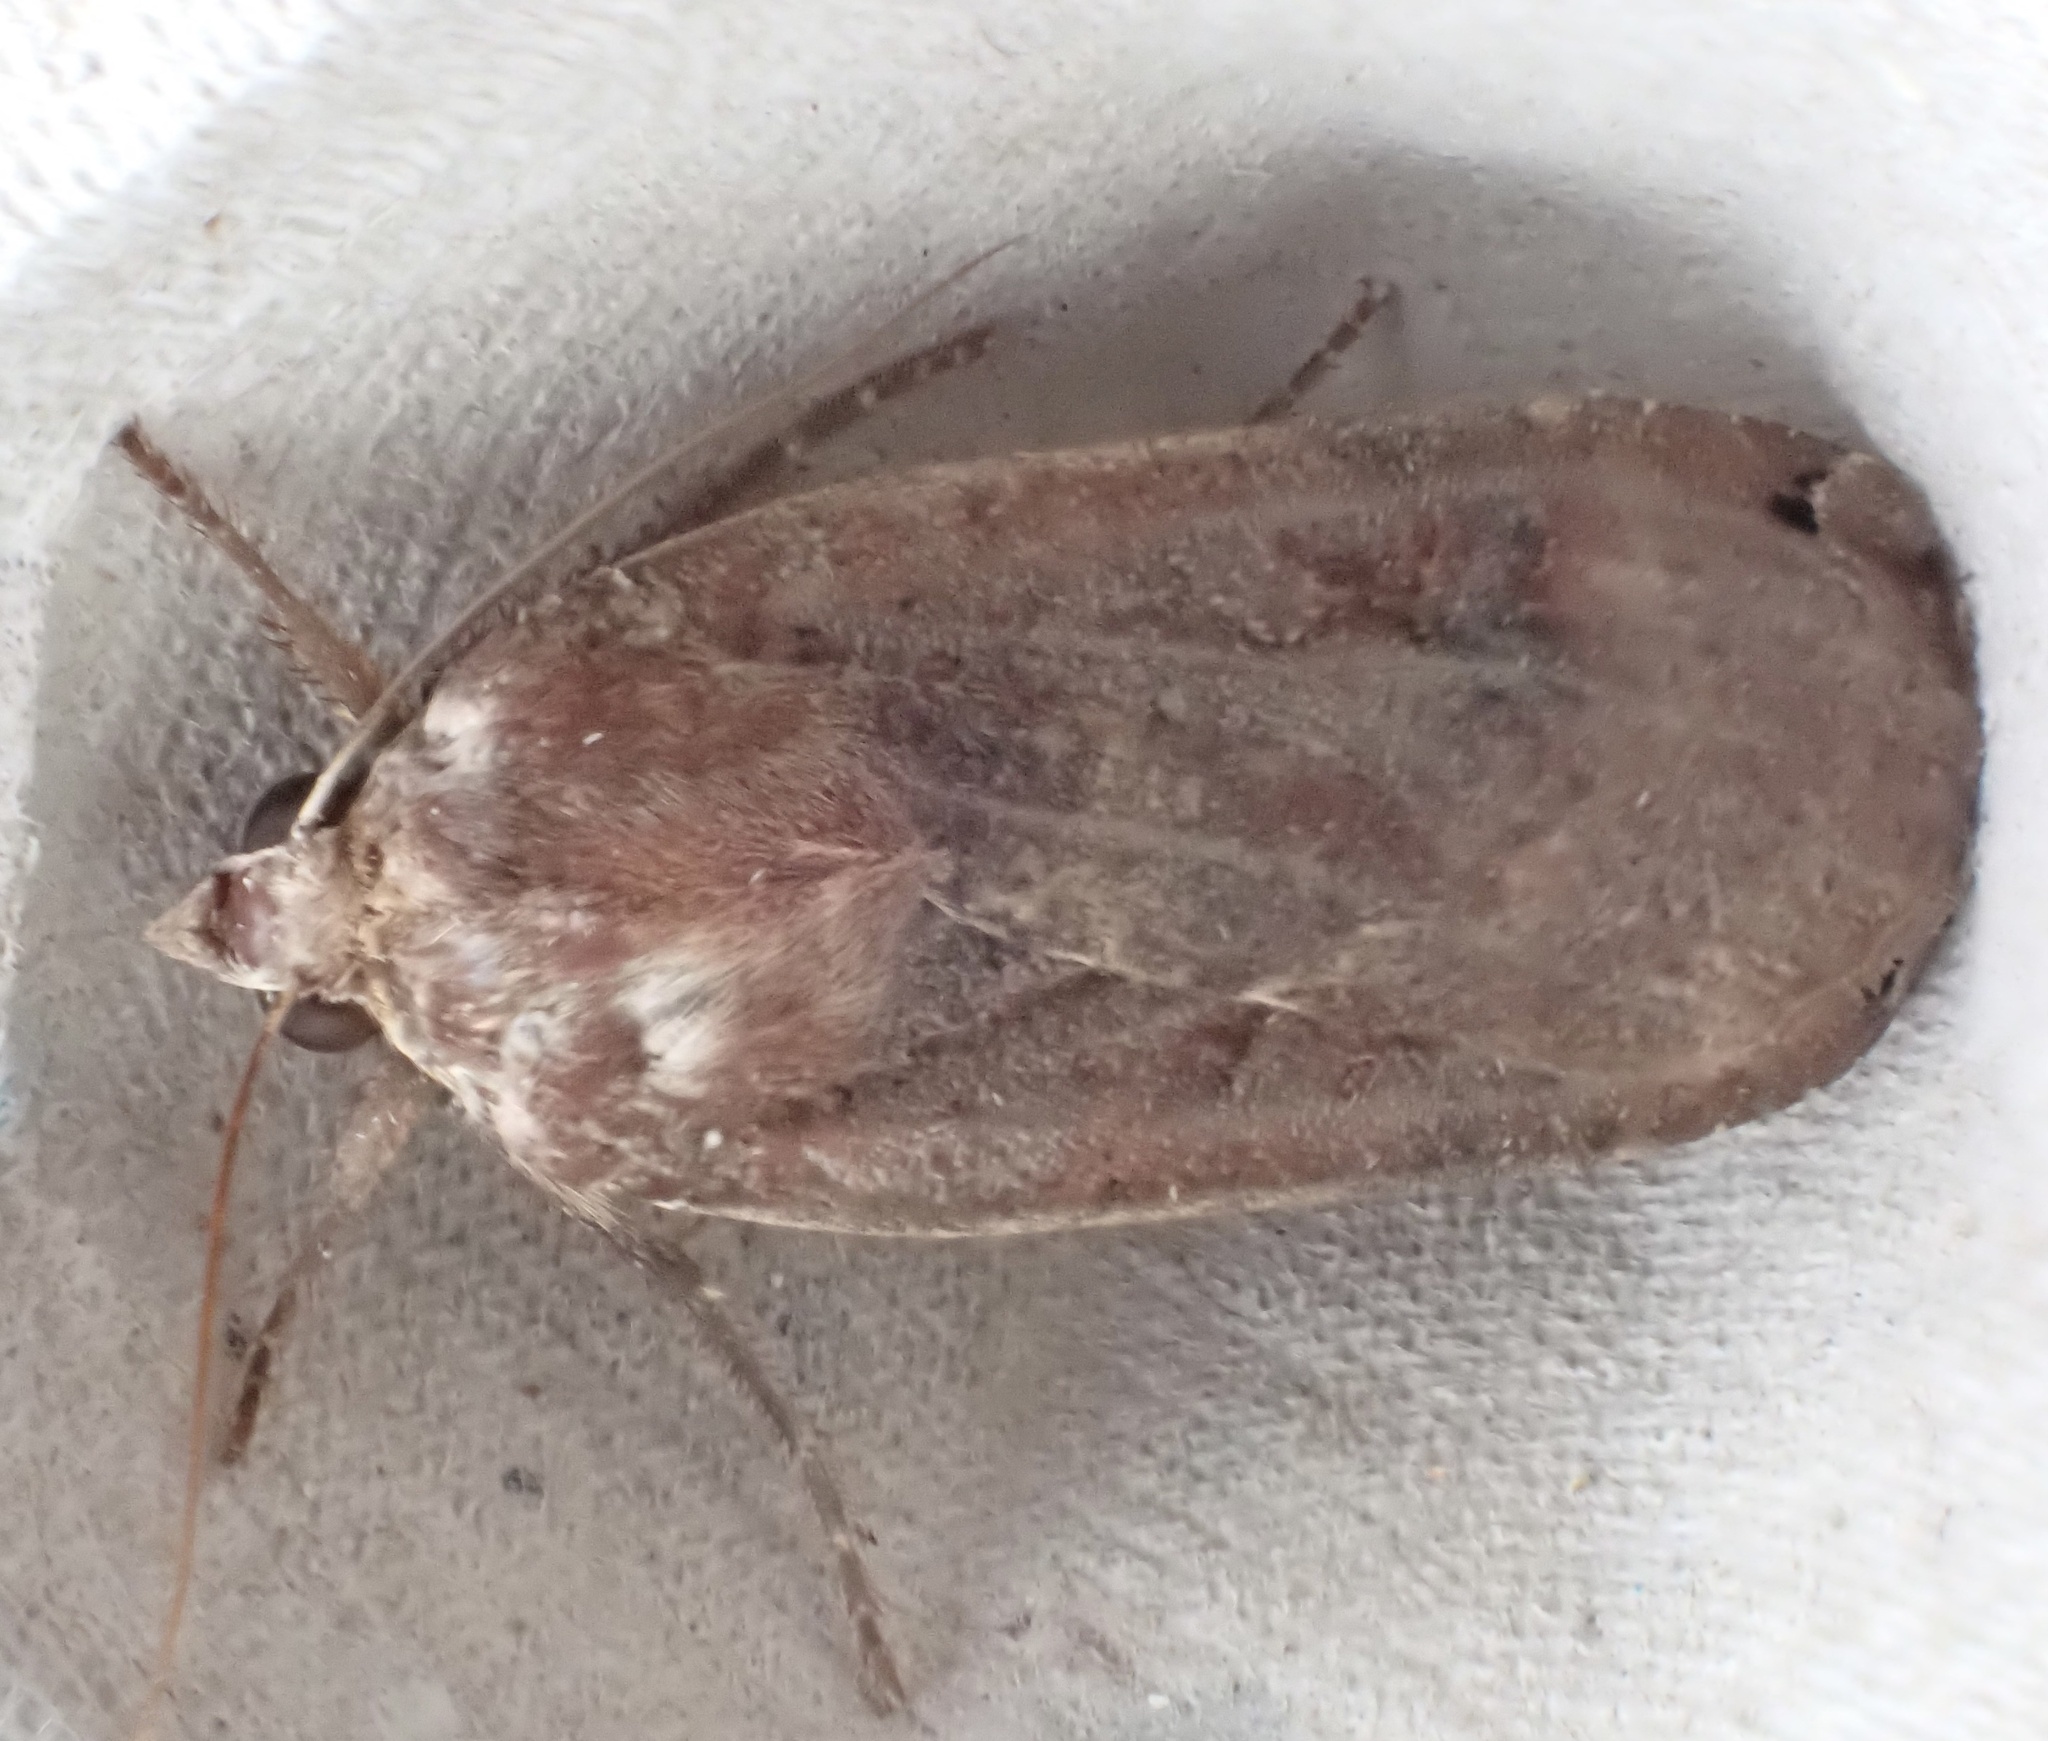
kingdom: Animalia
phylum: Arthropoda
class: Insecta
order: Lepidoptera
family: Noctuidae
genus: Noctua
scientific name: Noctua pronuba
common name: Large yellow underwing
